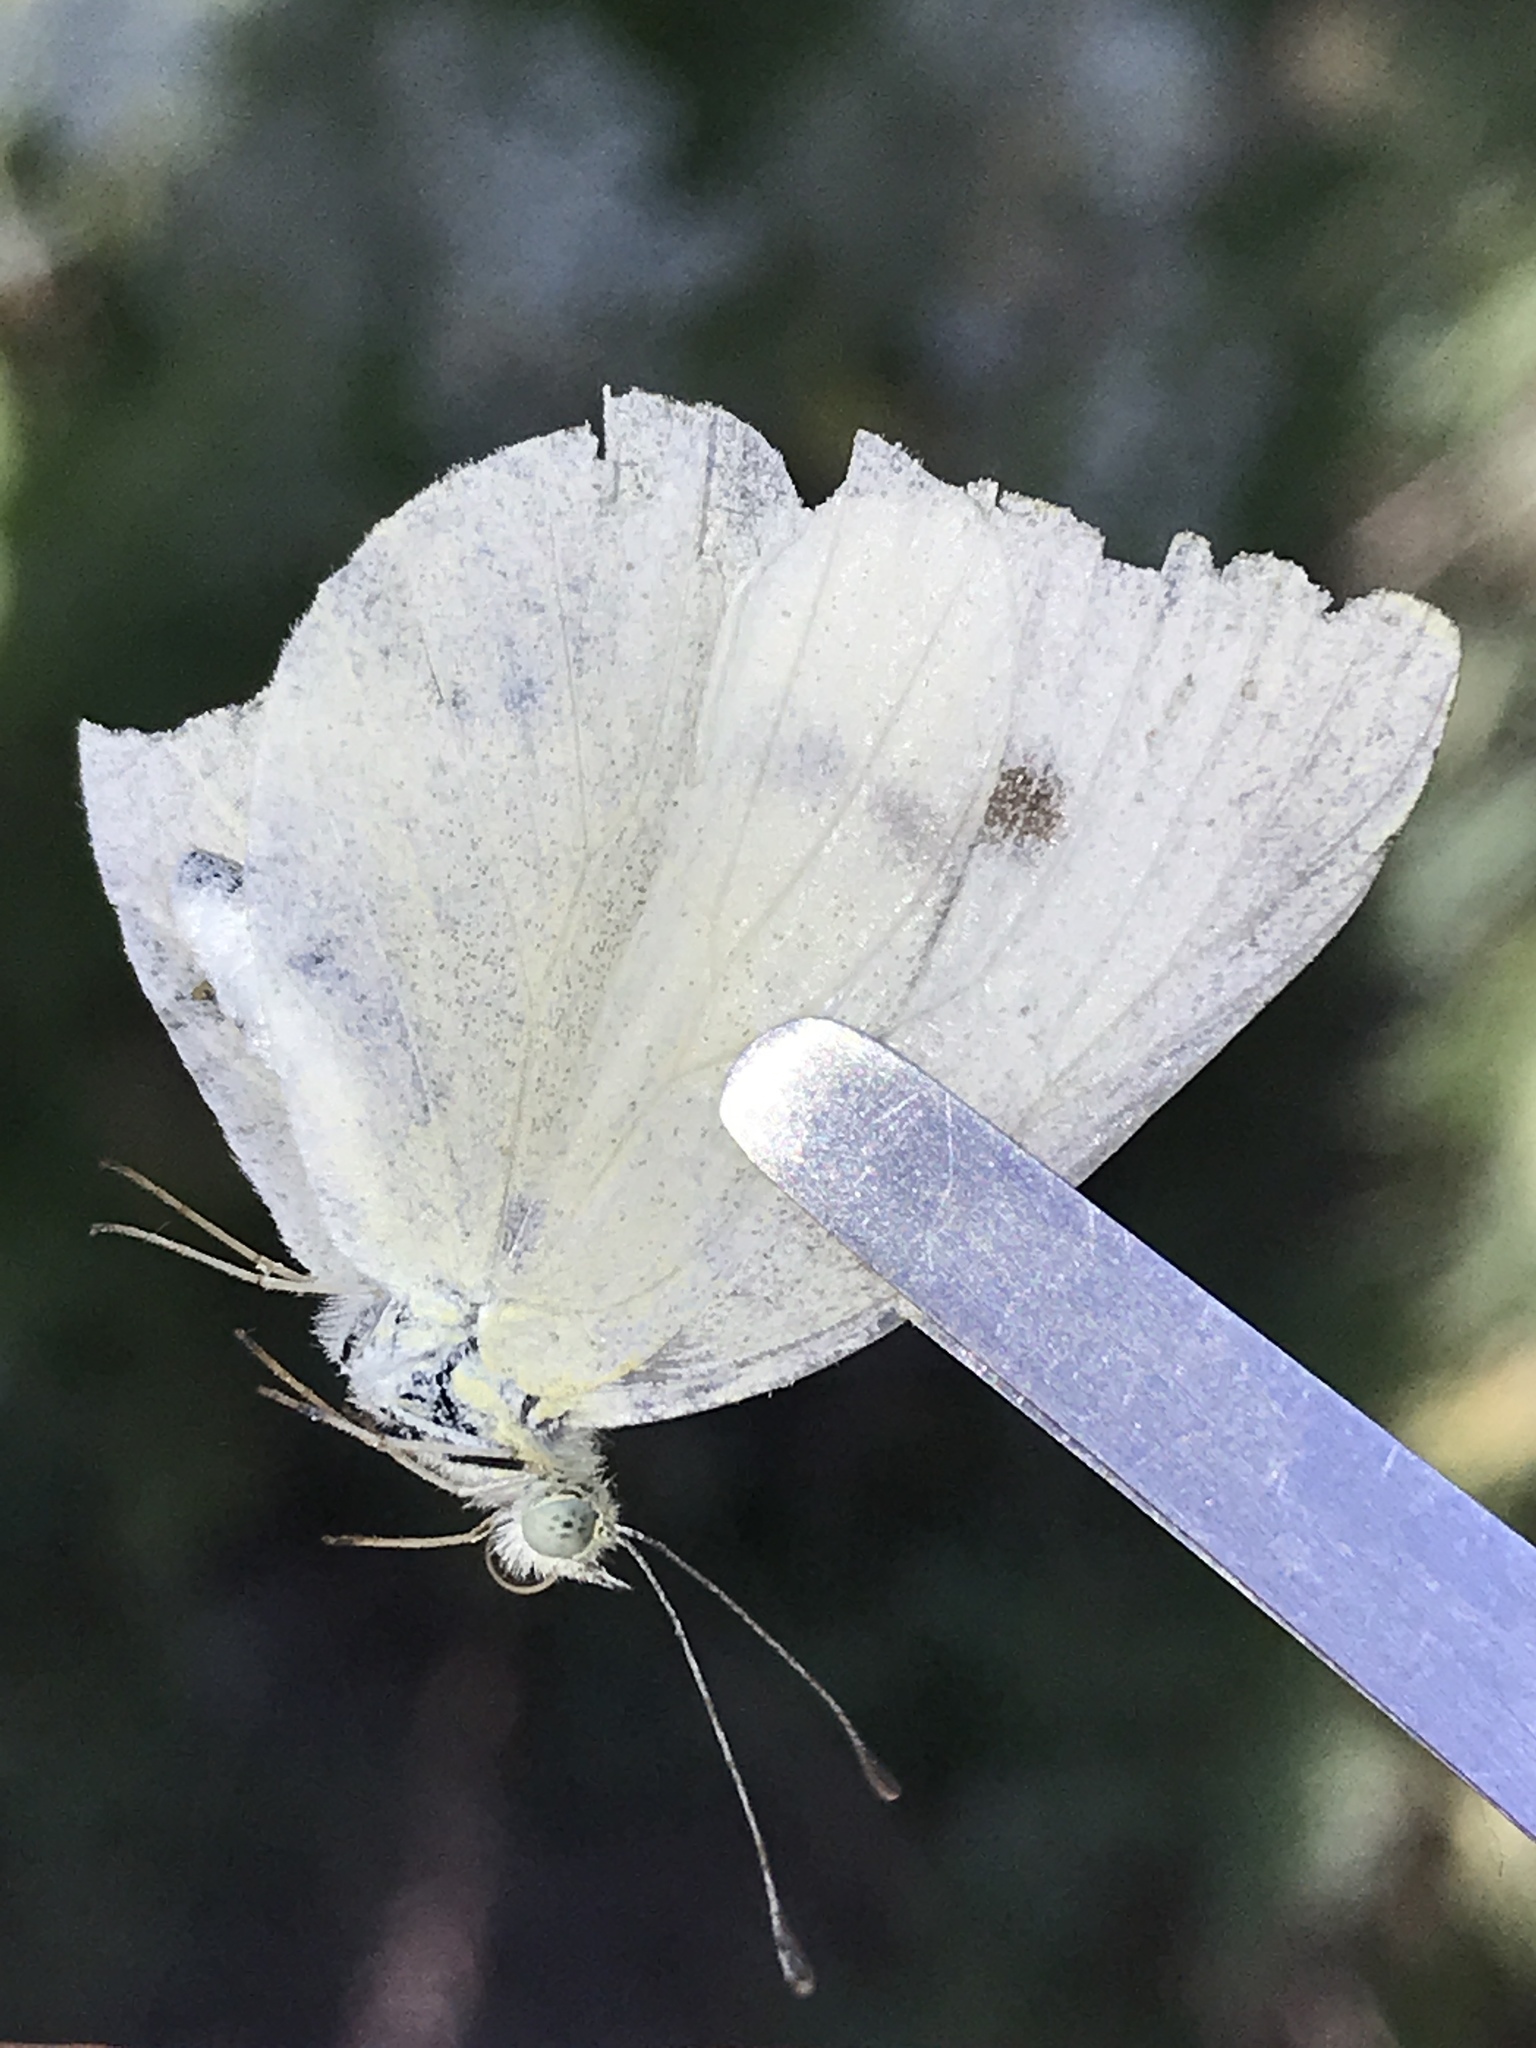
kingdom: Animalia
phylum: Arthropoda
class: Insecta
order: Lepidoptera
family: Pieridae
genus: Pieris
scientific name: Pieris rapae
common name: Small white
